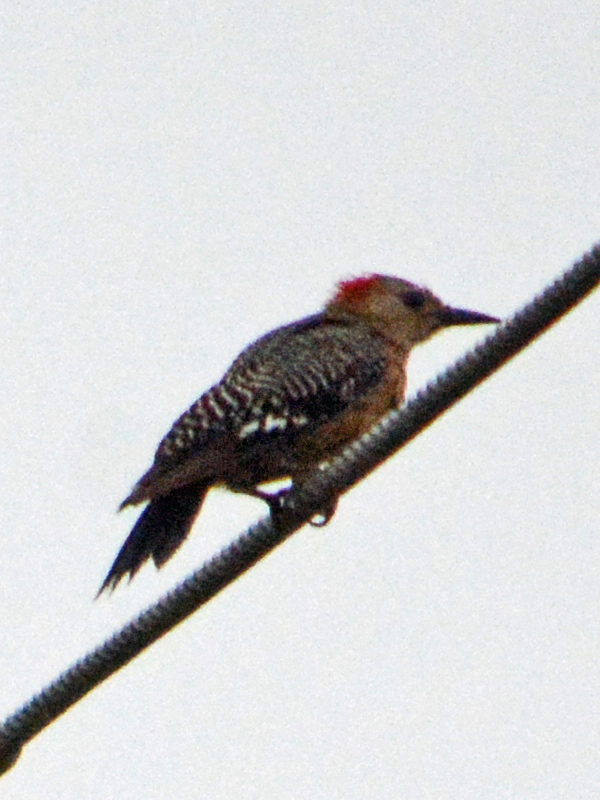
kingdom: Animalia
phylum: Chordata
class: Aves
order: Piciformes
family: Picidae
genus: Melanerpes
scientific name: Melanerpes aurifrons
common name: Golden-fronted woodpecker
